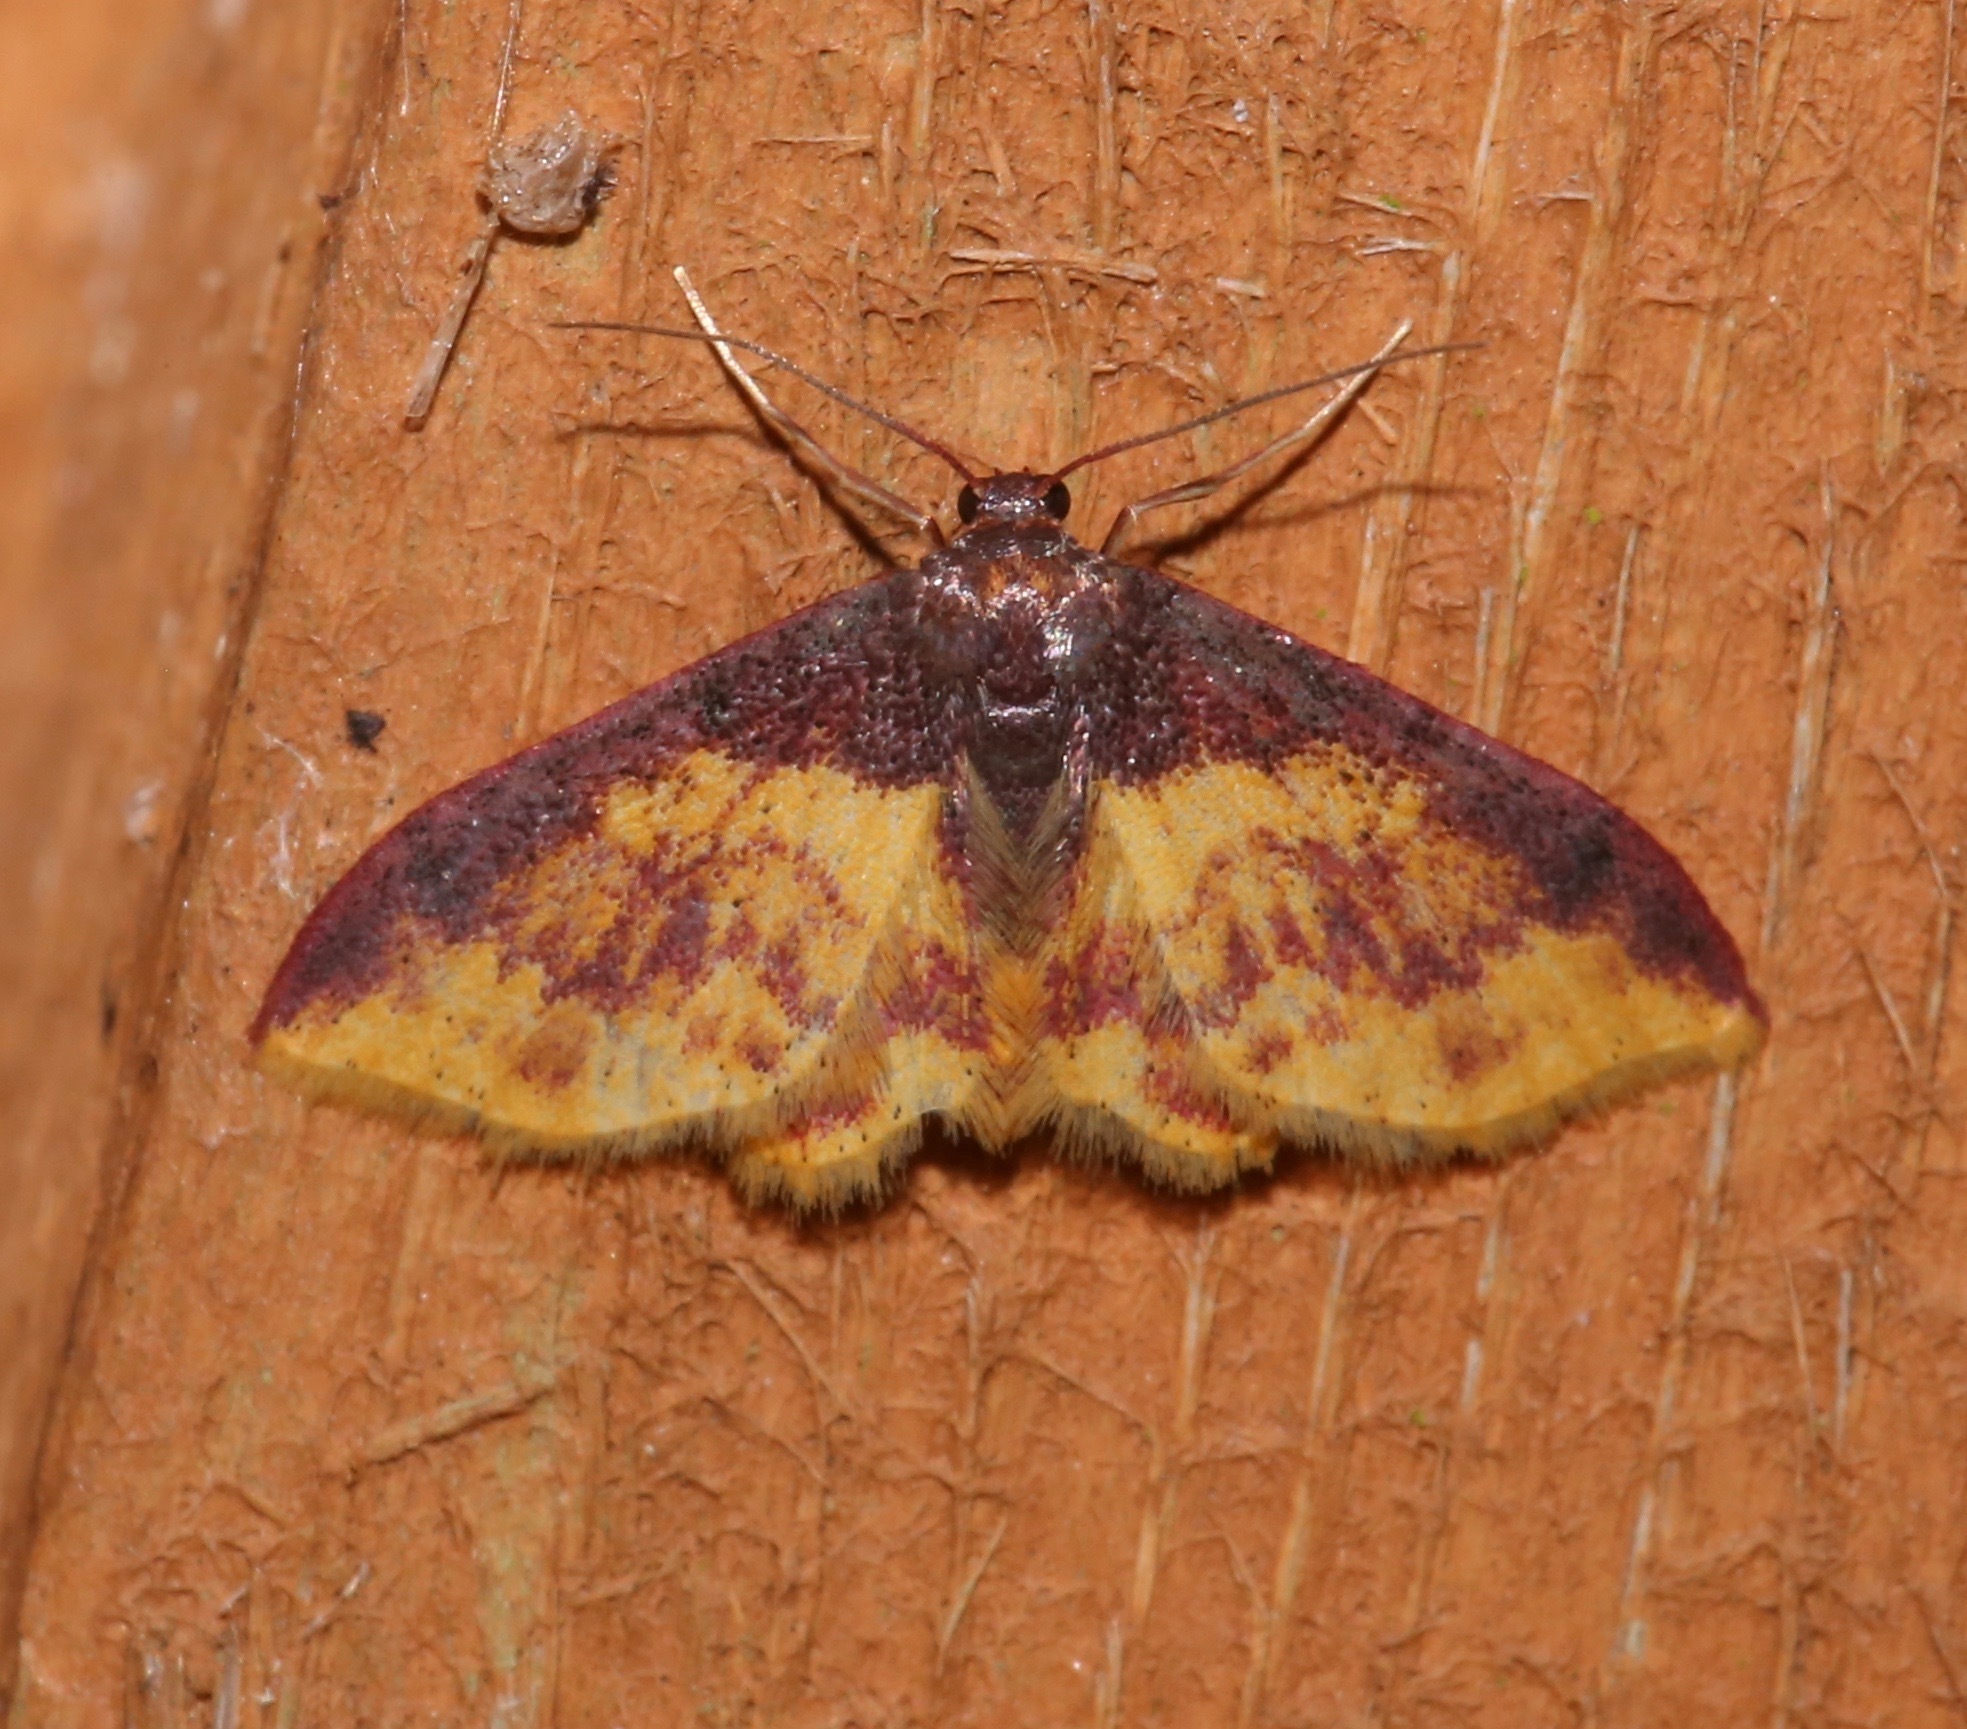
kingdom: Animalia
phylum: Arthropoda
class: Insecta
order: Lepidoptera
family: Geometridae
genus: Lophosis
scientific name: Lophosis labeculata
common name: Stained lophosis moth
